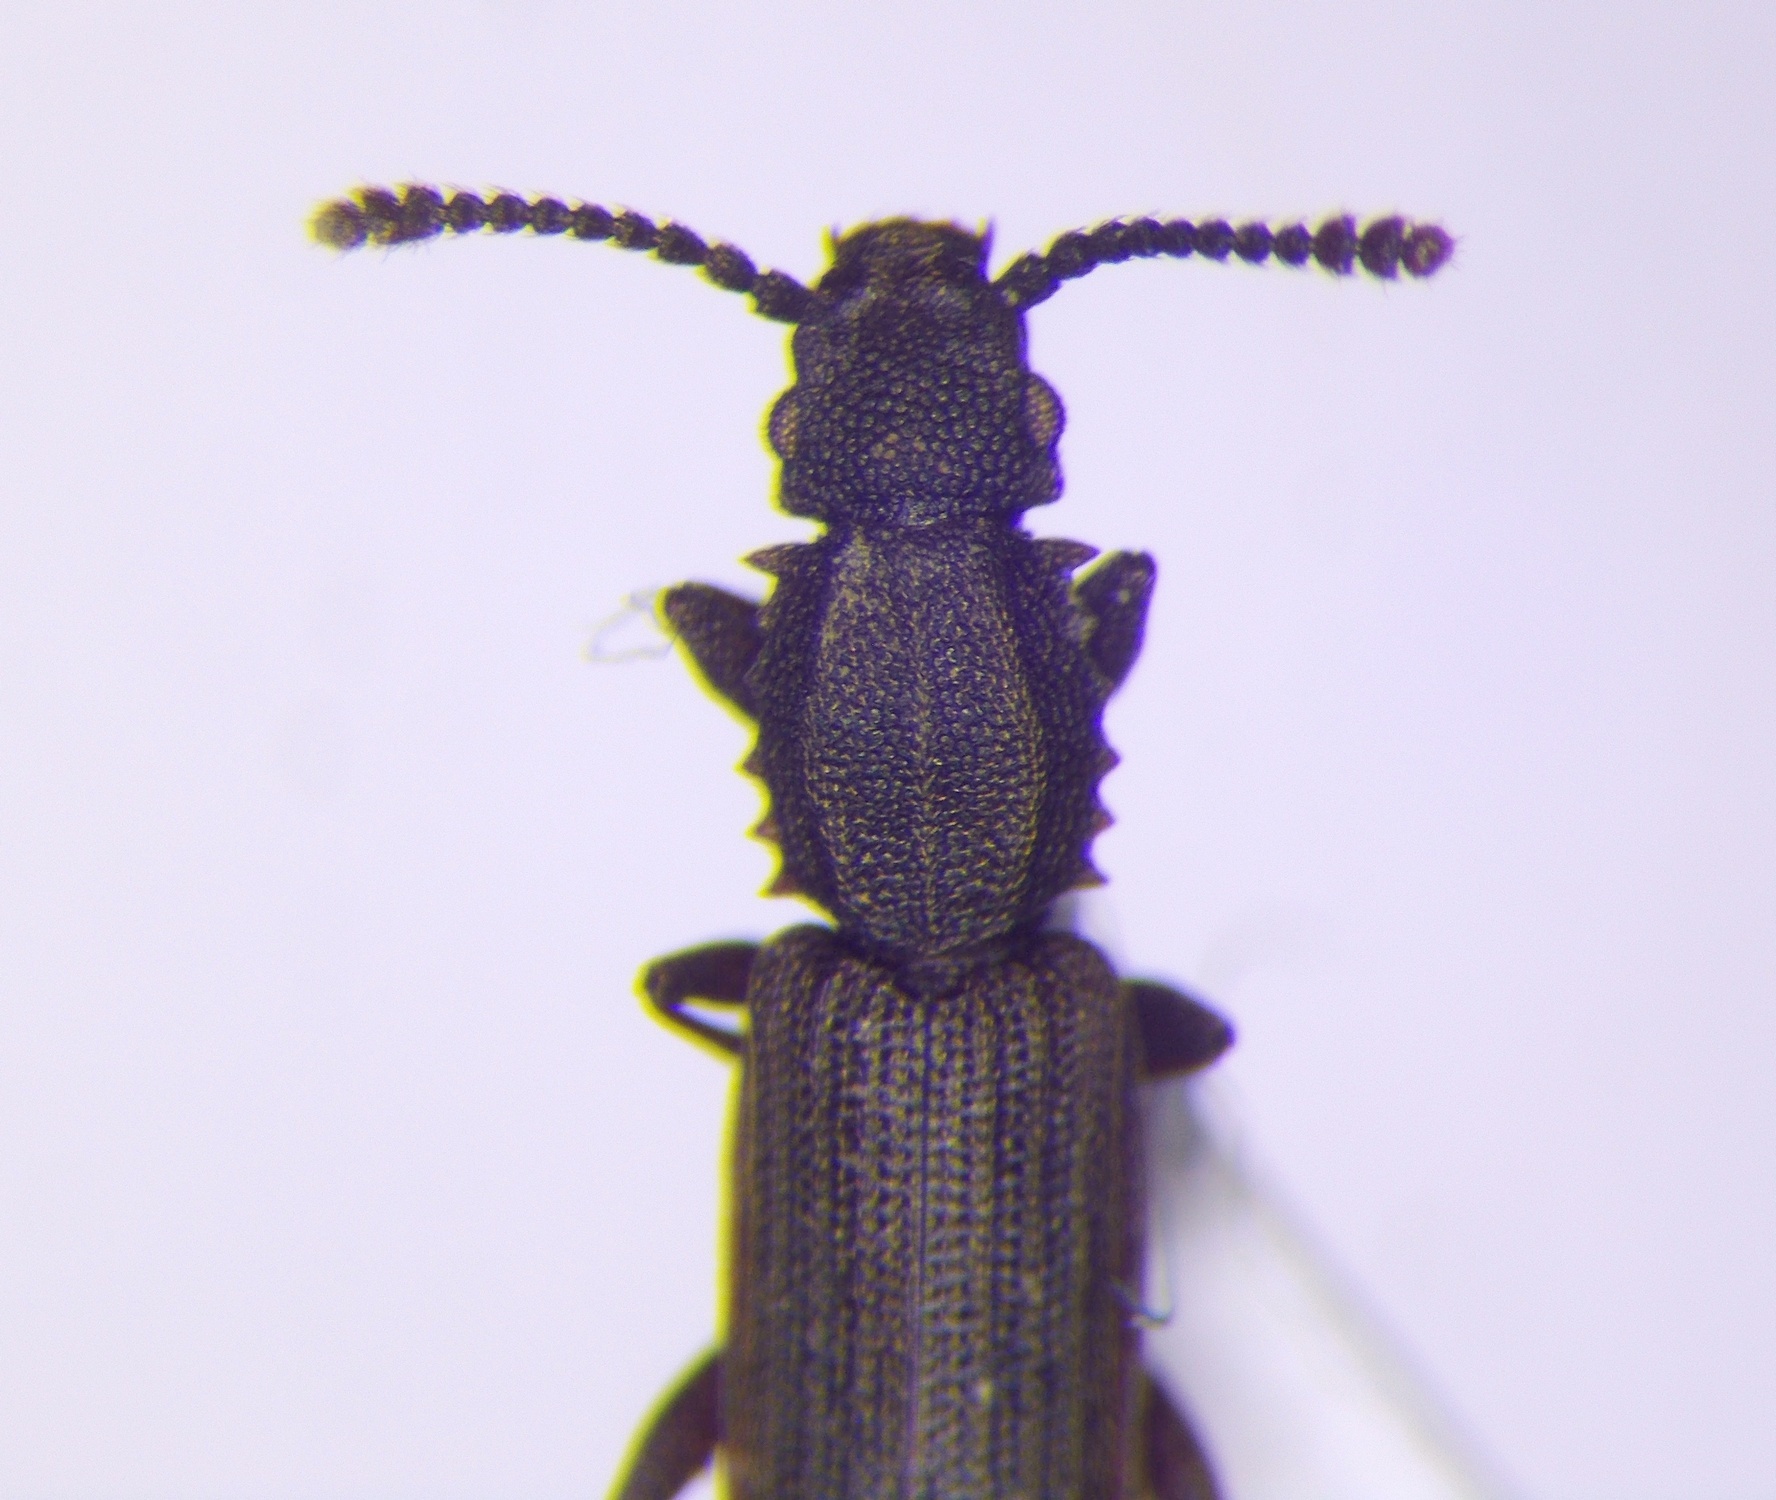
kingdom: Animalia
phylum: Arthropoda
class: Insecta
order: Coleoptera
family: Silvanidae
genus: Oryzaephilus
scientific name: Oryzaephilus surinamensis
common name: Sawtoothed grain beetle
